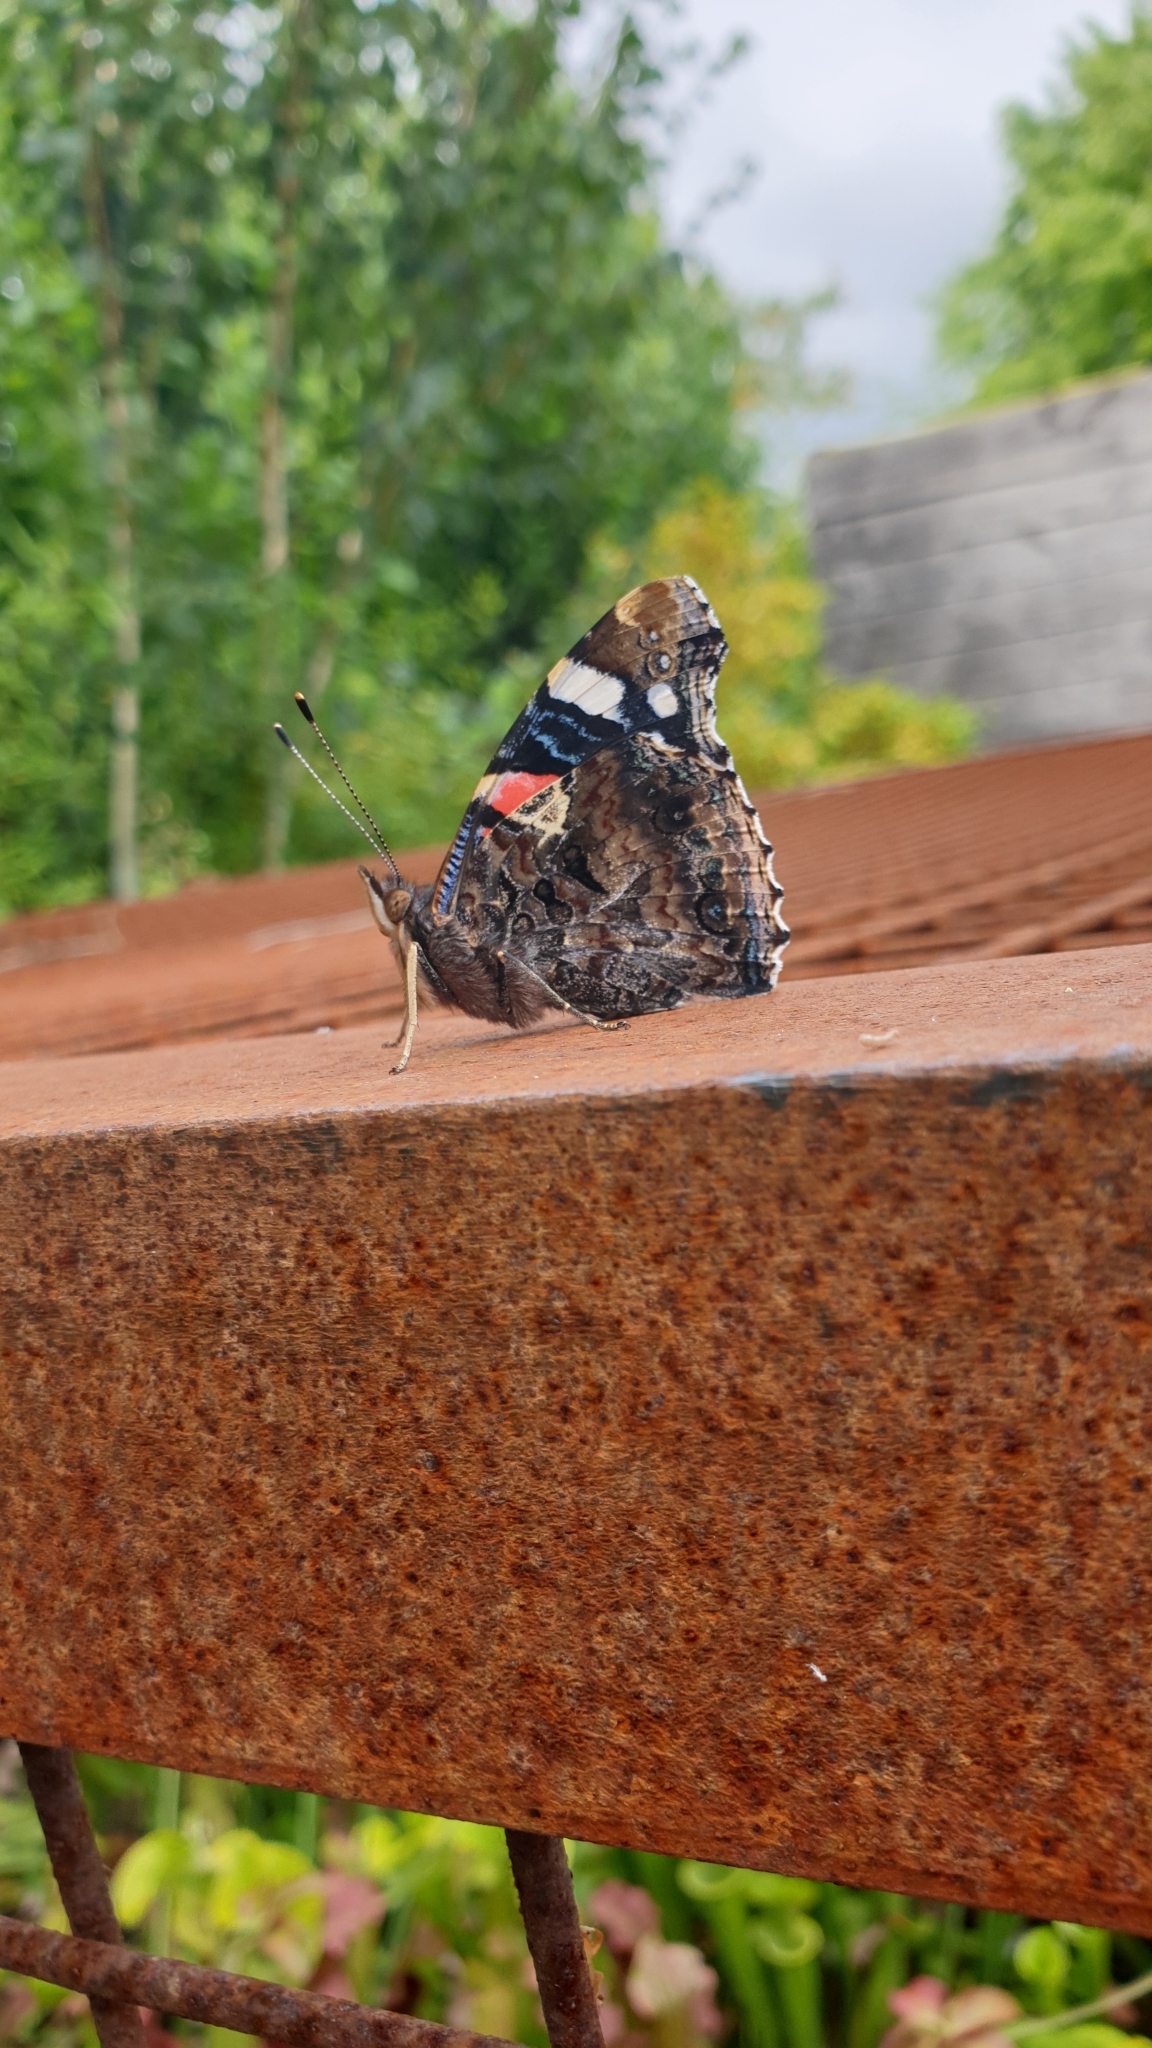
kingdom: Animalia
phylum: Arthropoda
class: Insecta
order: Lepidoptera
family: Nymphalidae
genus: Vanessa
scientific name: Vanessa atalanta
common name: Red admiral
